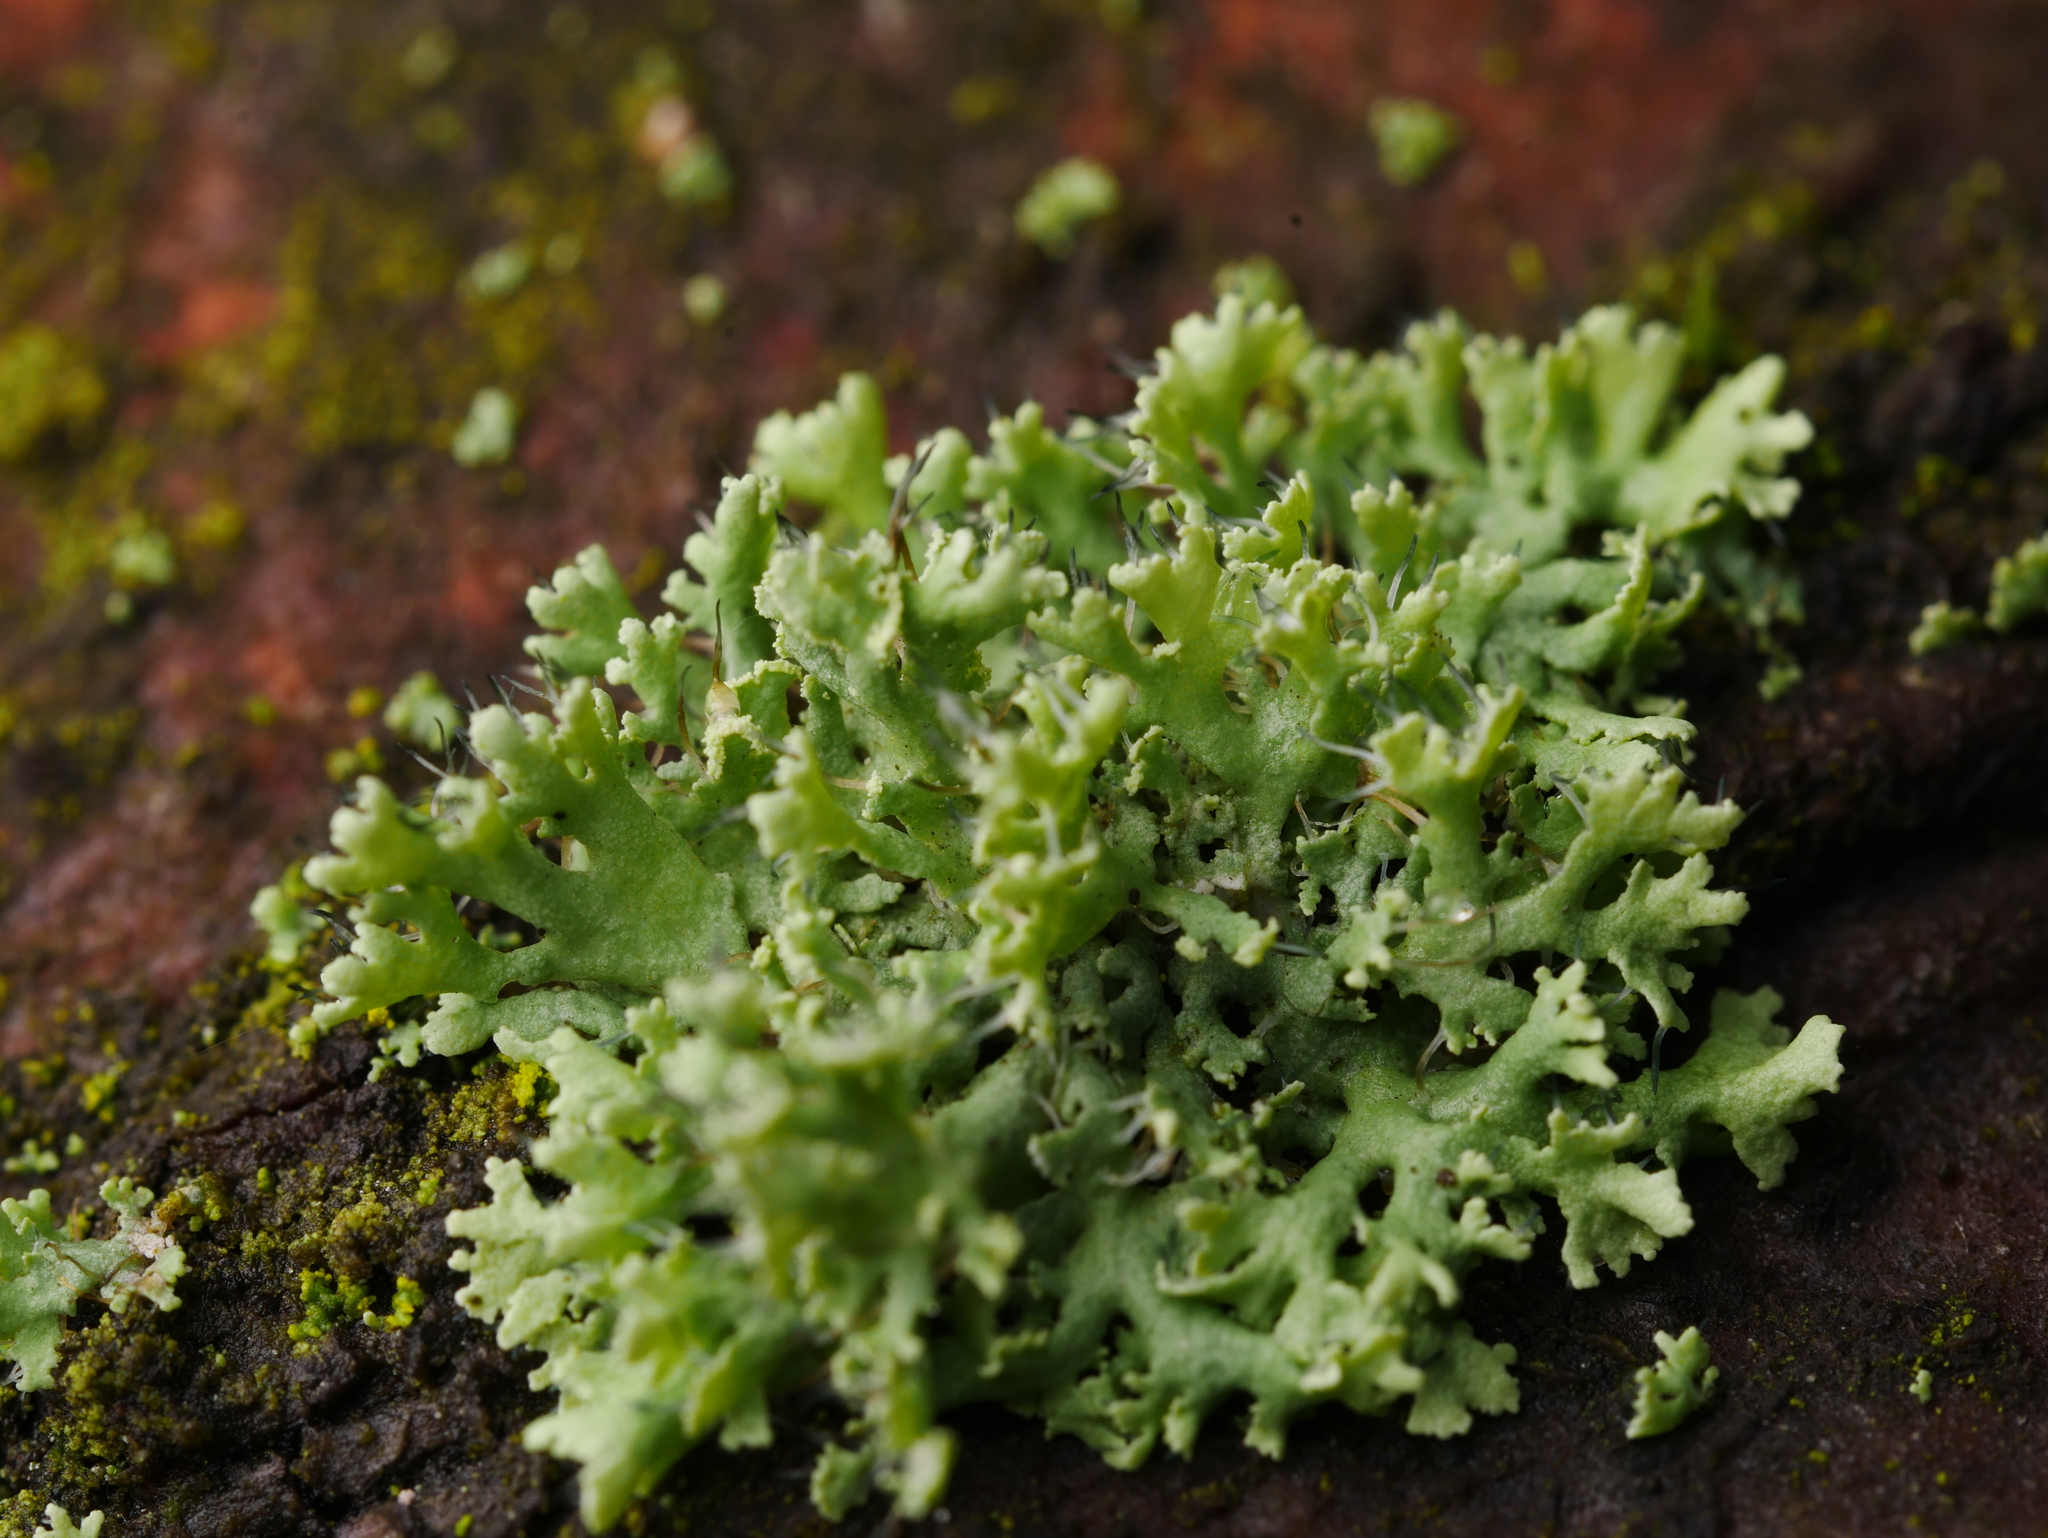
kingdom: Fungi
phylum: Ascomycota
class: Lecanoromycetes
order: Caliciales
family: Physciaceae
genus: Physcia
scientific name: Physcia tenella
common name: Fringed rosette lichen
